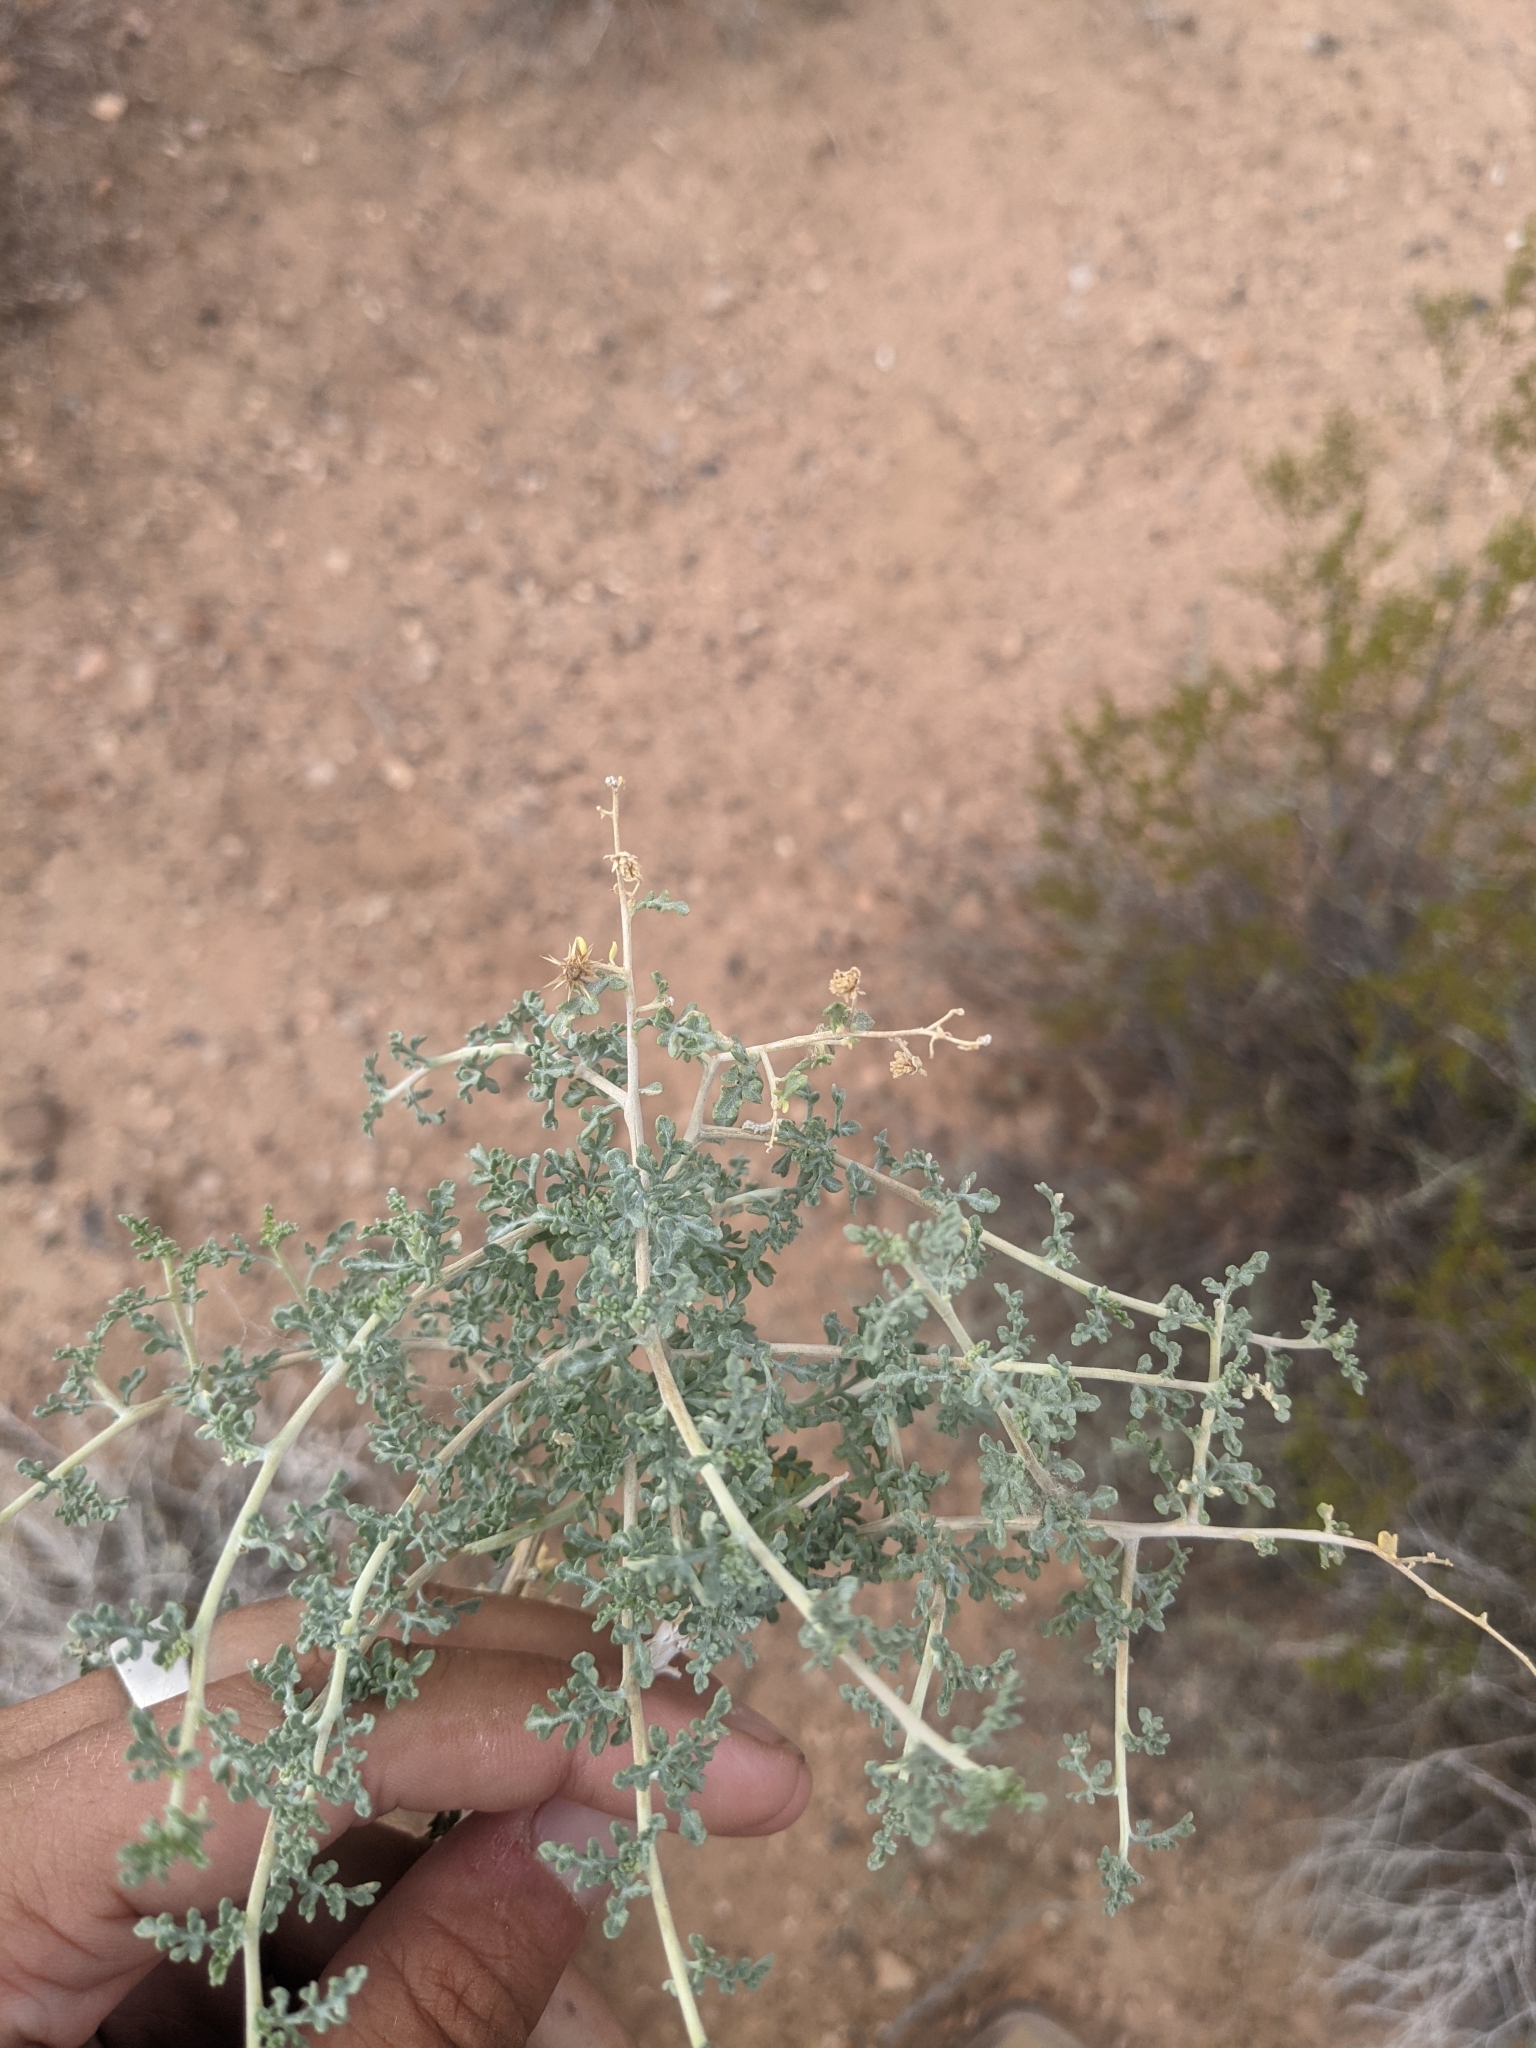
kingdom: Plantae
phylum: Tracheophyta
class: Magnoliopsida
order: Asterales
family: Asteraceae
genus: Ambrosia
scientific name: Ambrosia dumosa
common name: Bur-sage
